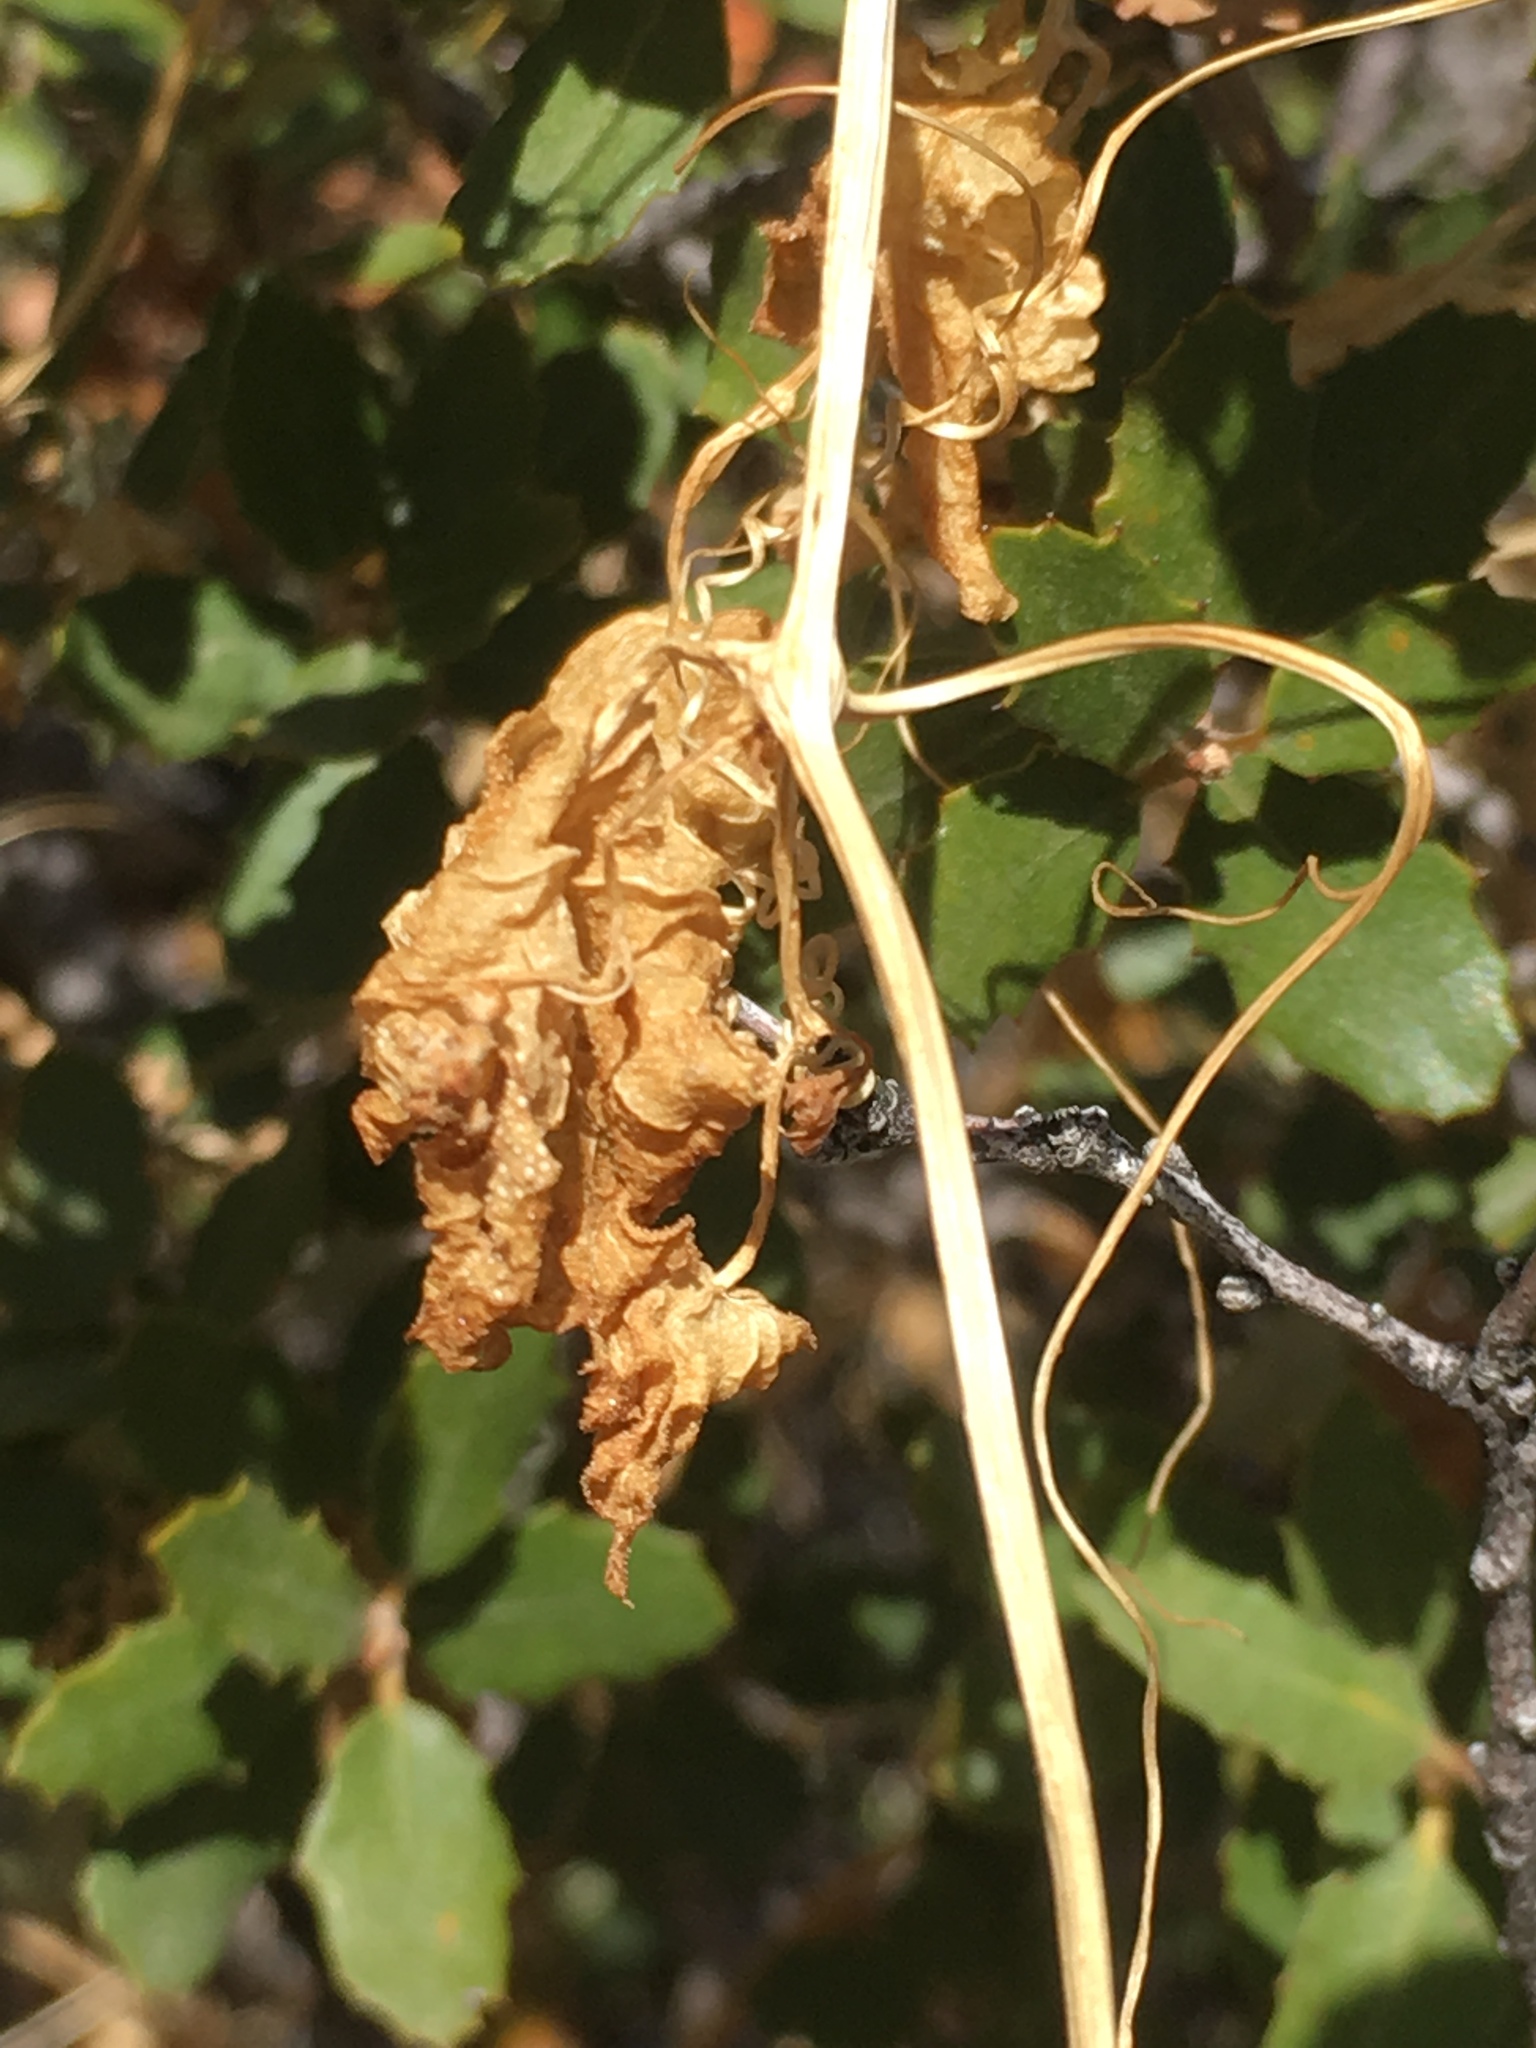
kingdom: Plantae
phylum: Tracheophyta
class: Magnoliopsida
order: Cucurbitales
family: Cucurbitaceae
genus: Marah
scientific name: Marah macrocarpa
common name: Cucamonga manroot
